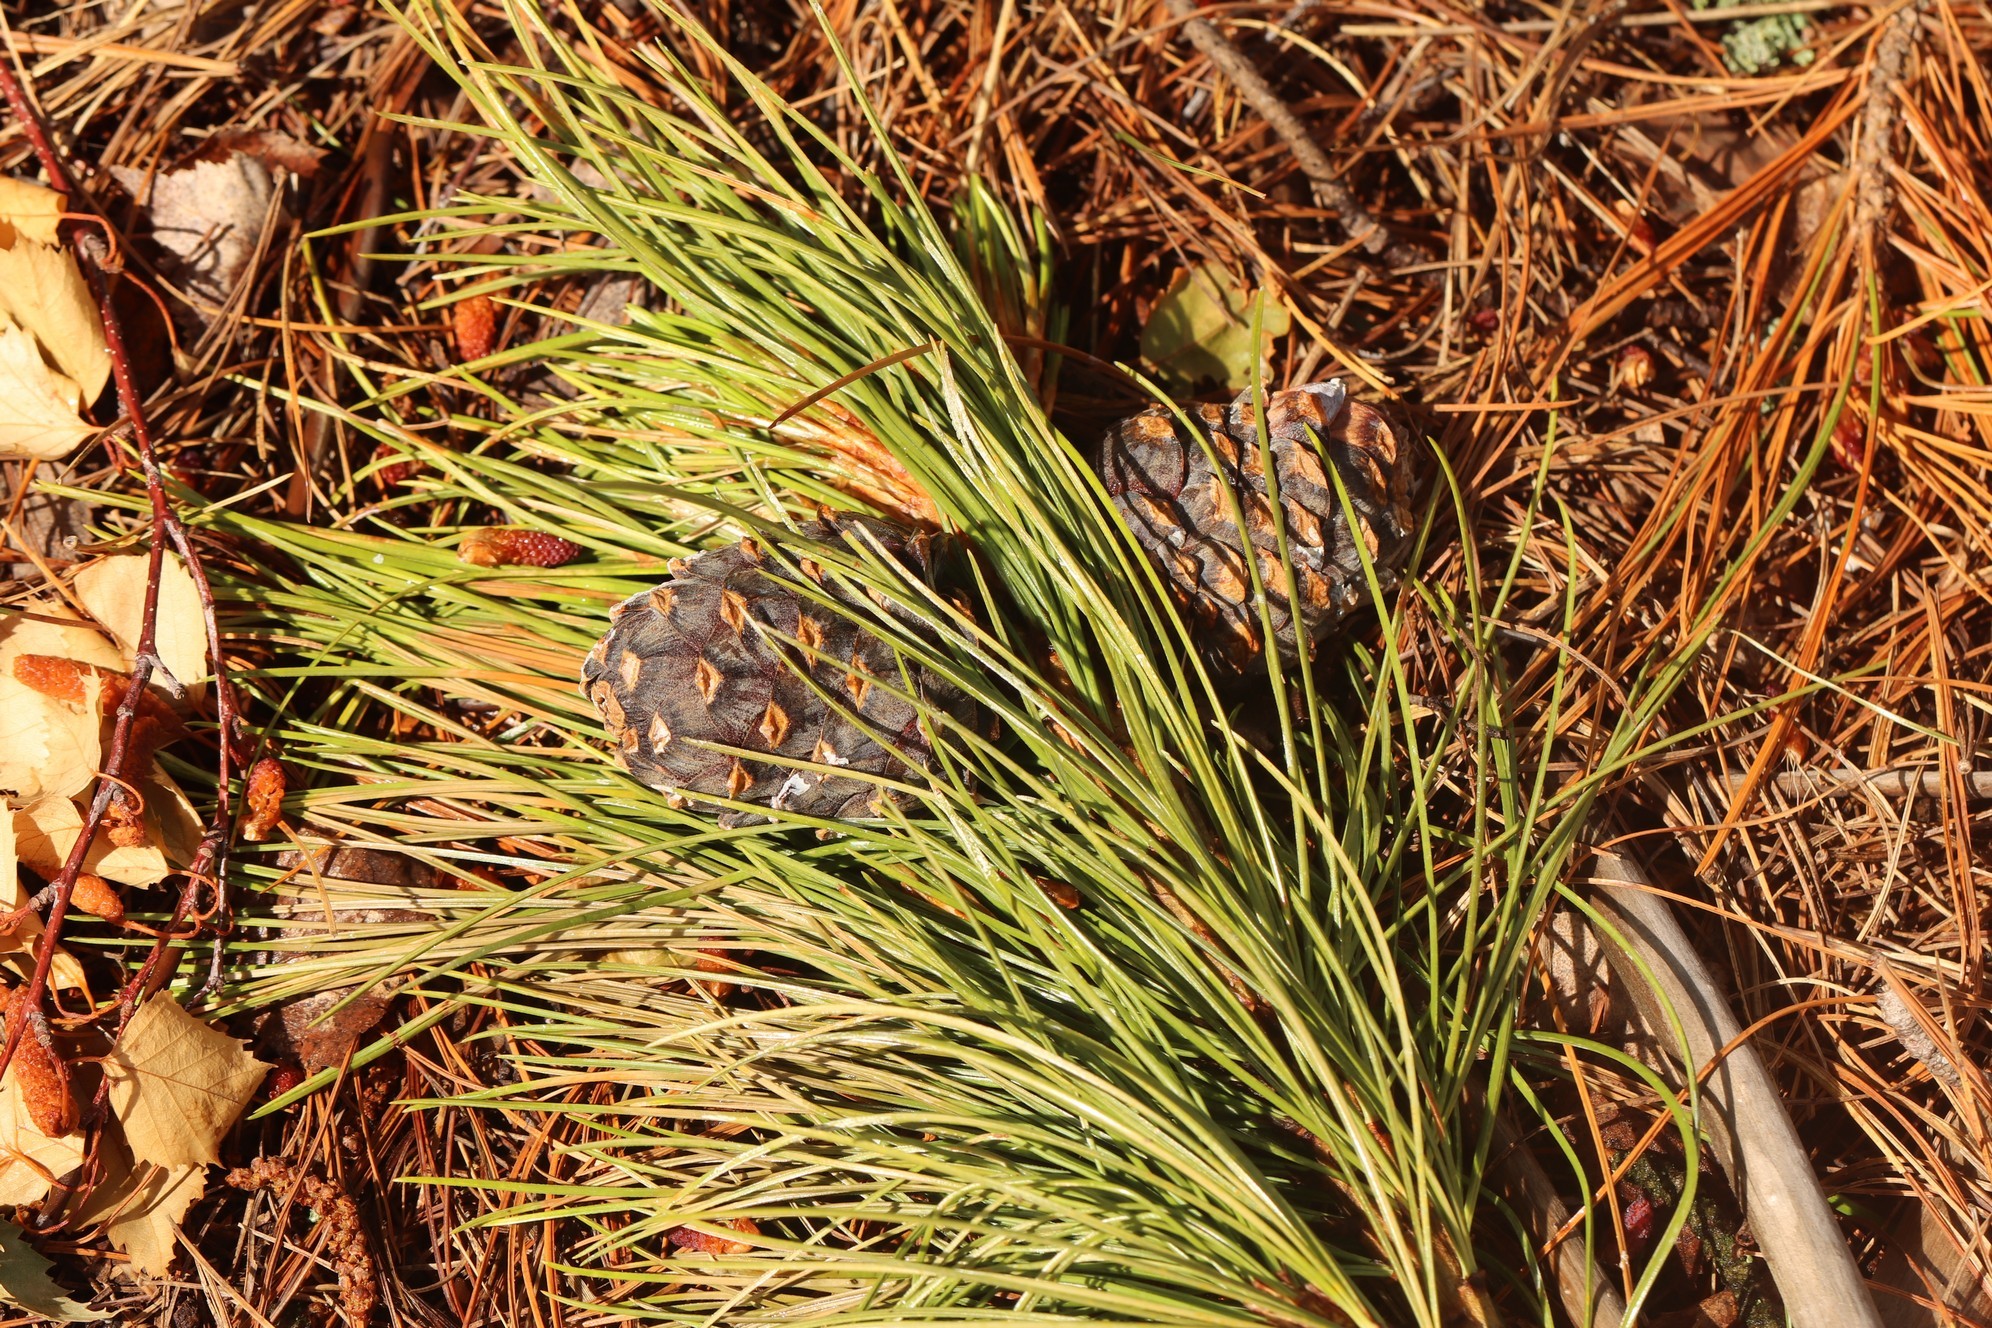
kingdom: Plantae
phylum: Tracheophyta
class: Pinopsida
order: Pinales
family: Pinaceae
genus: Pinus
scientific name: Pinus sibirica
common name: Siberian pine
